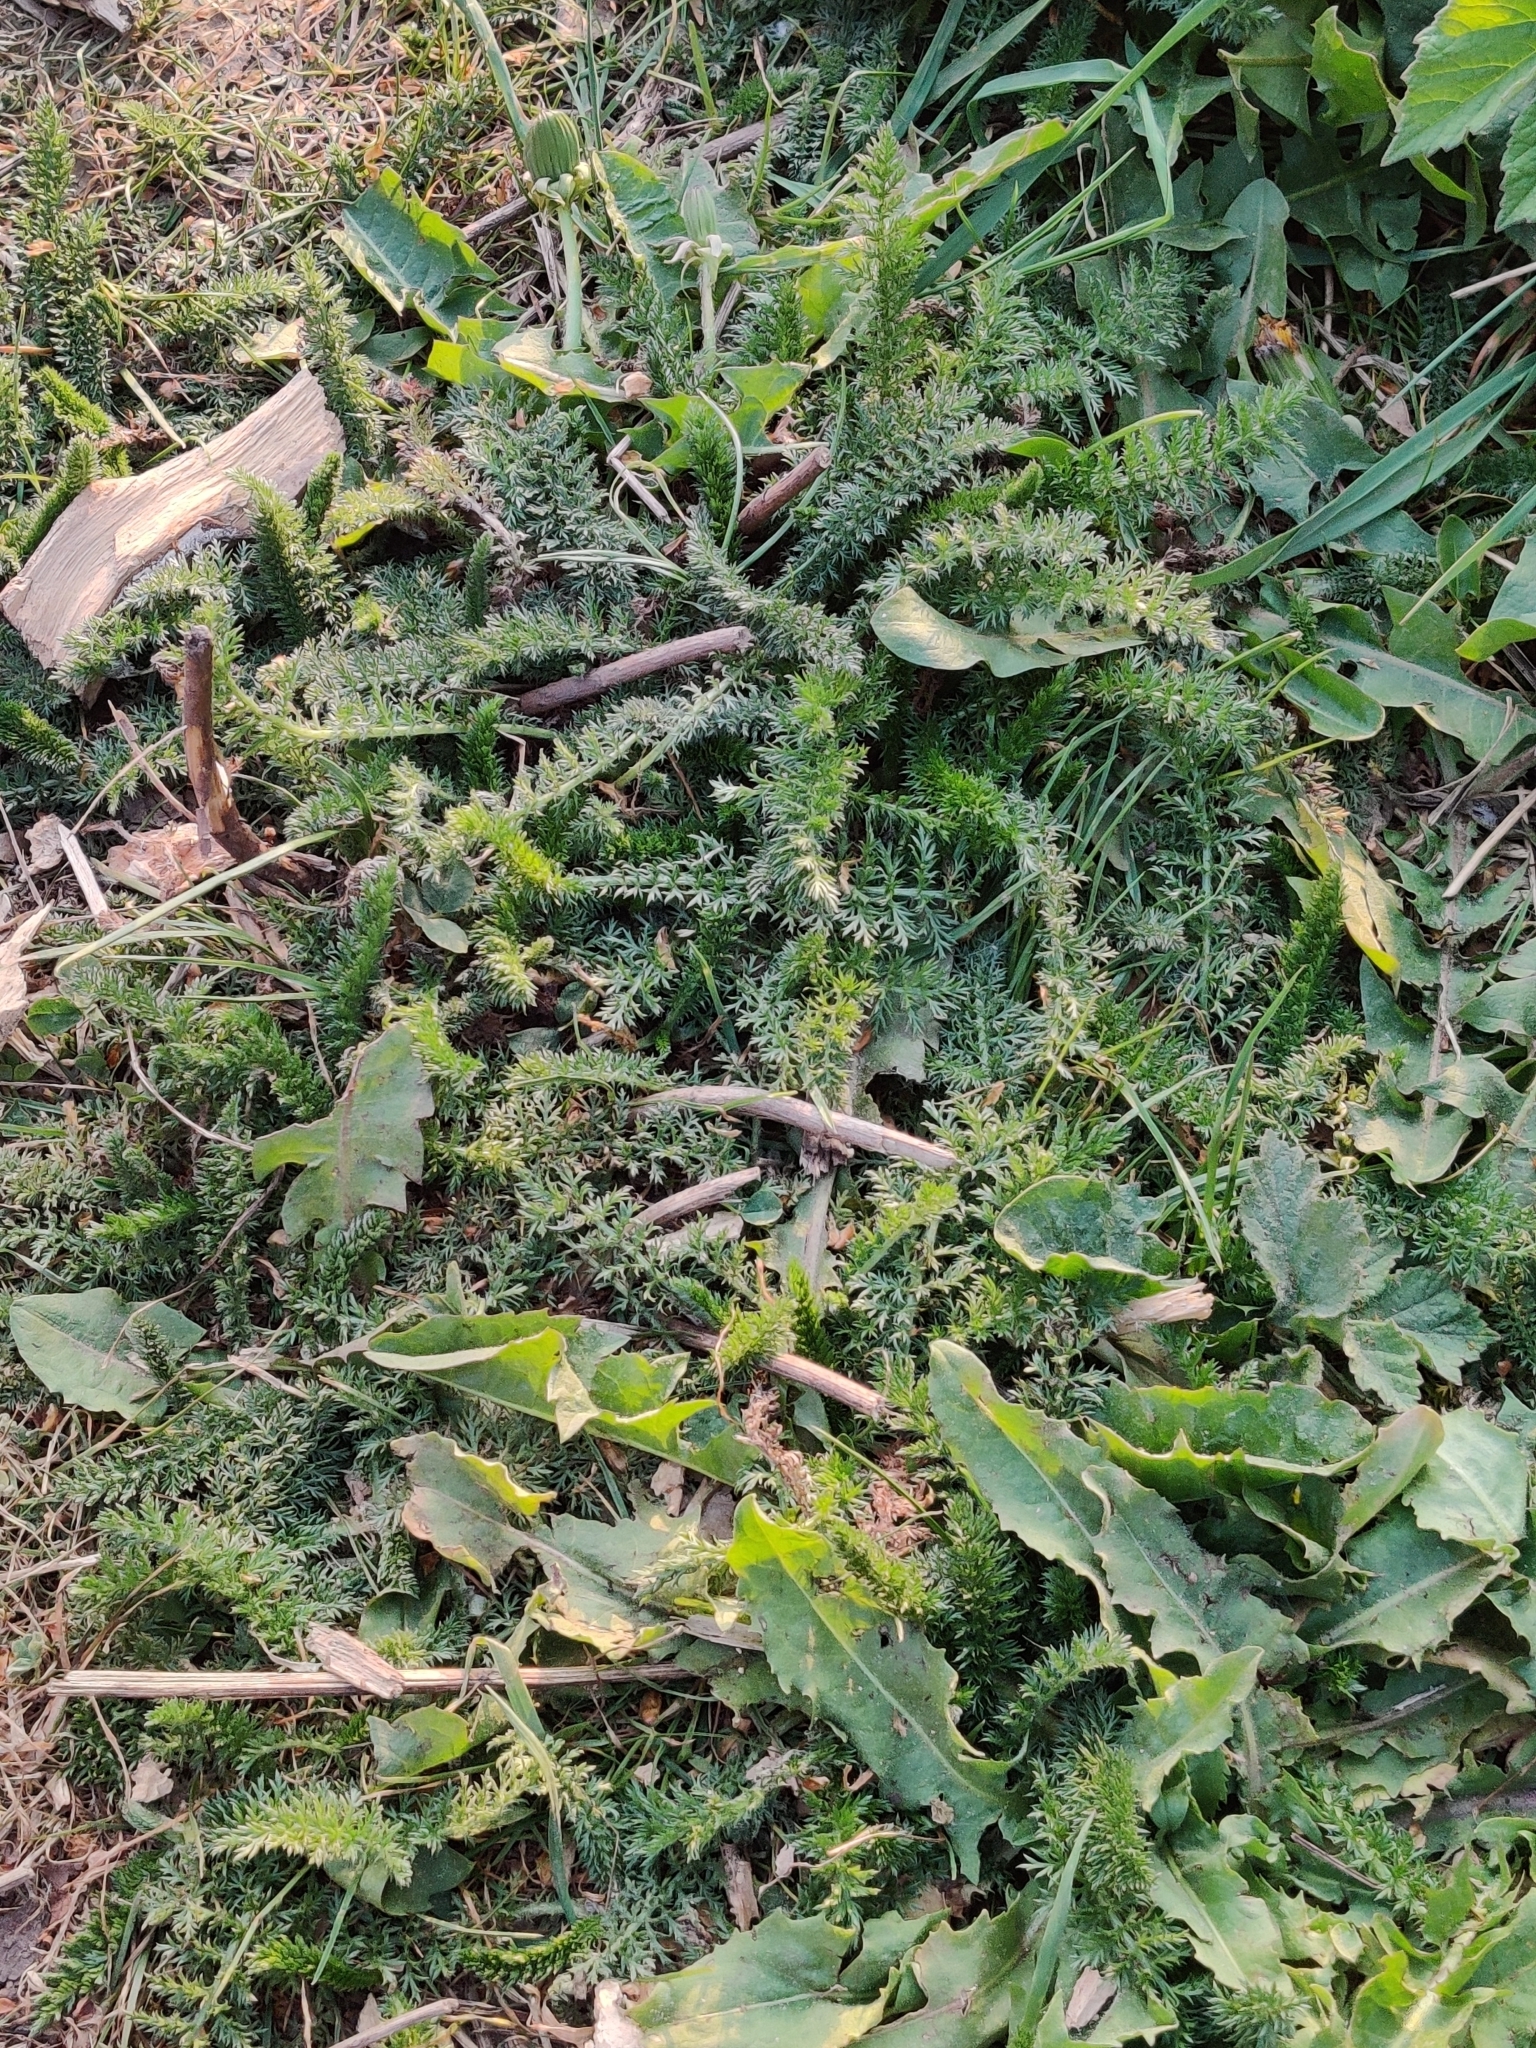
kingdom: Plantae
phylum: Tracheophyta
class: Magnoliopsida
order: Asterales
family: Asteraceae
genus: Achillea
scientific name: Achillea millefolium
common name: Yarrow
